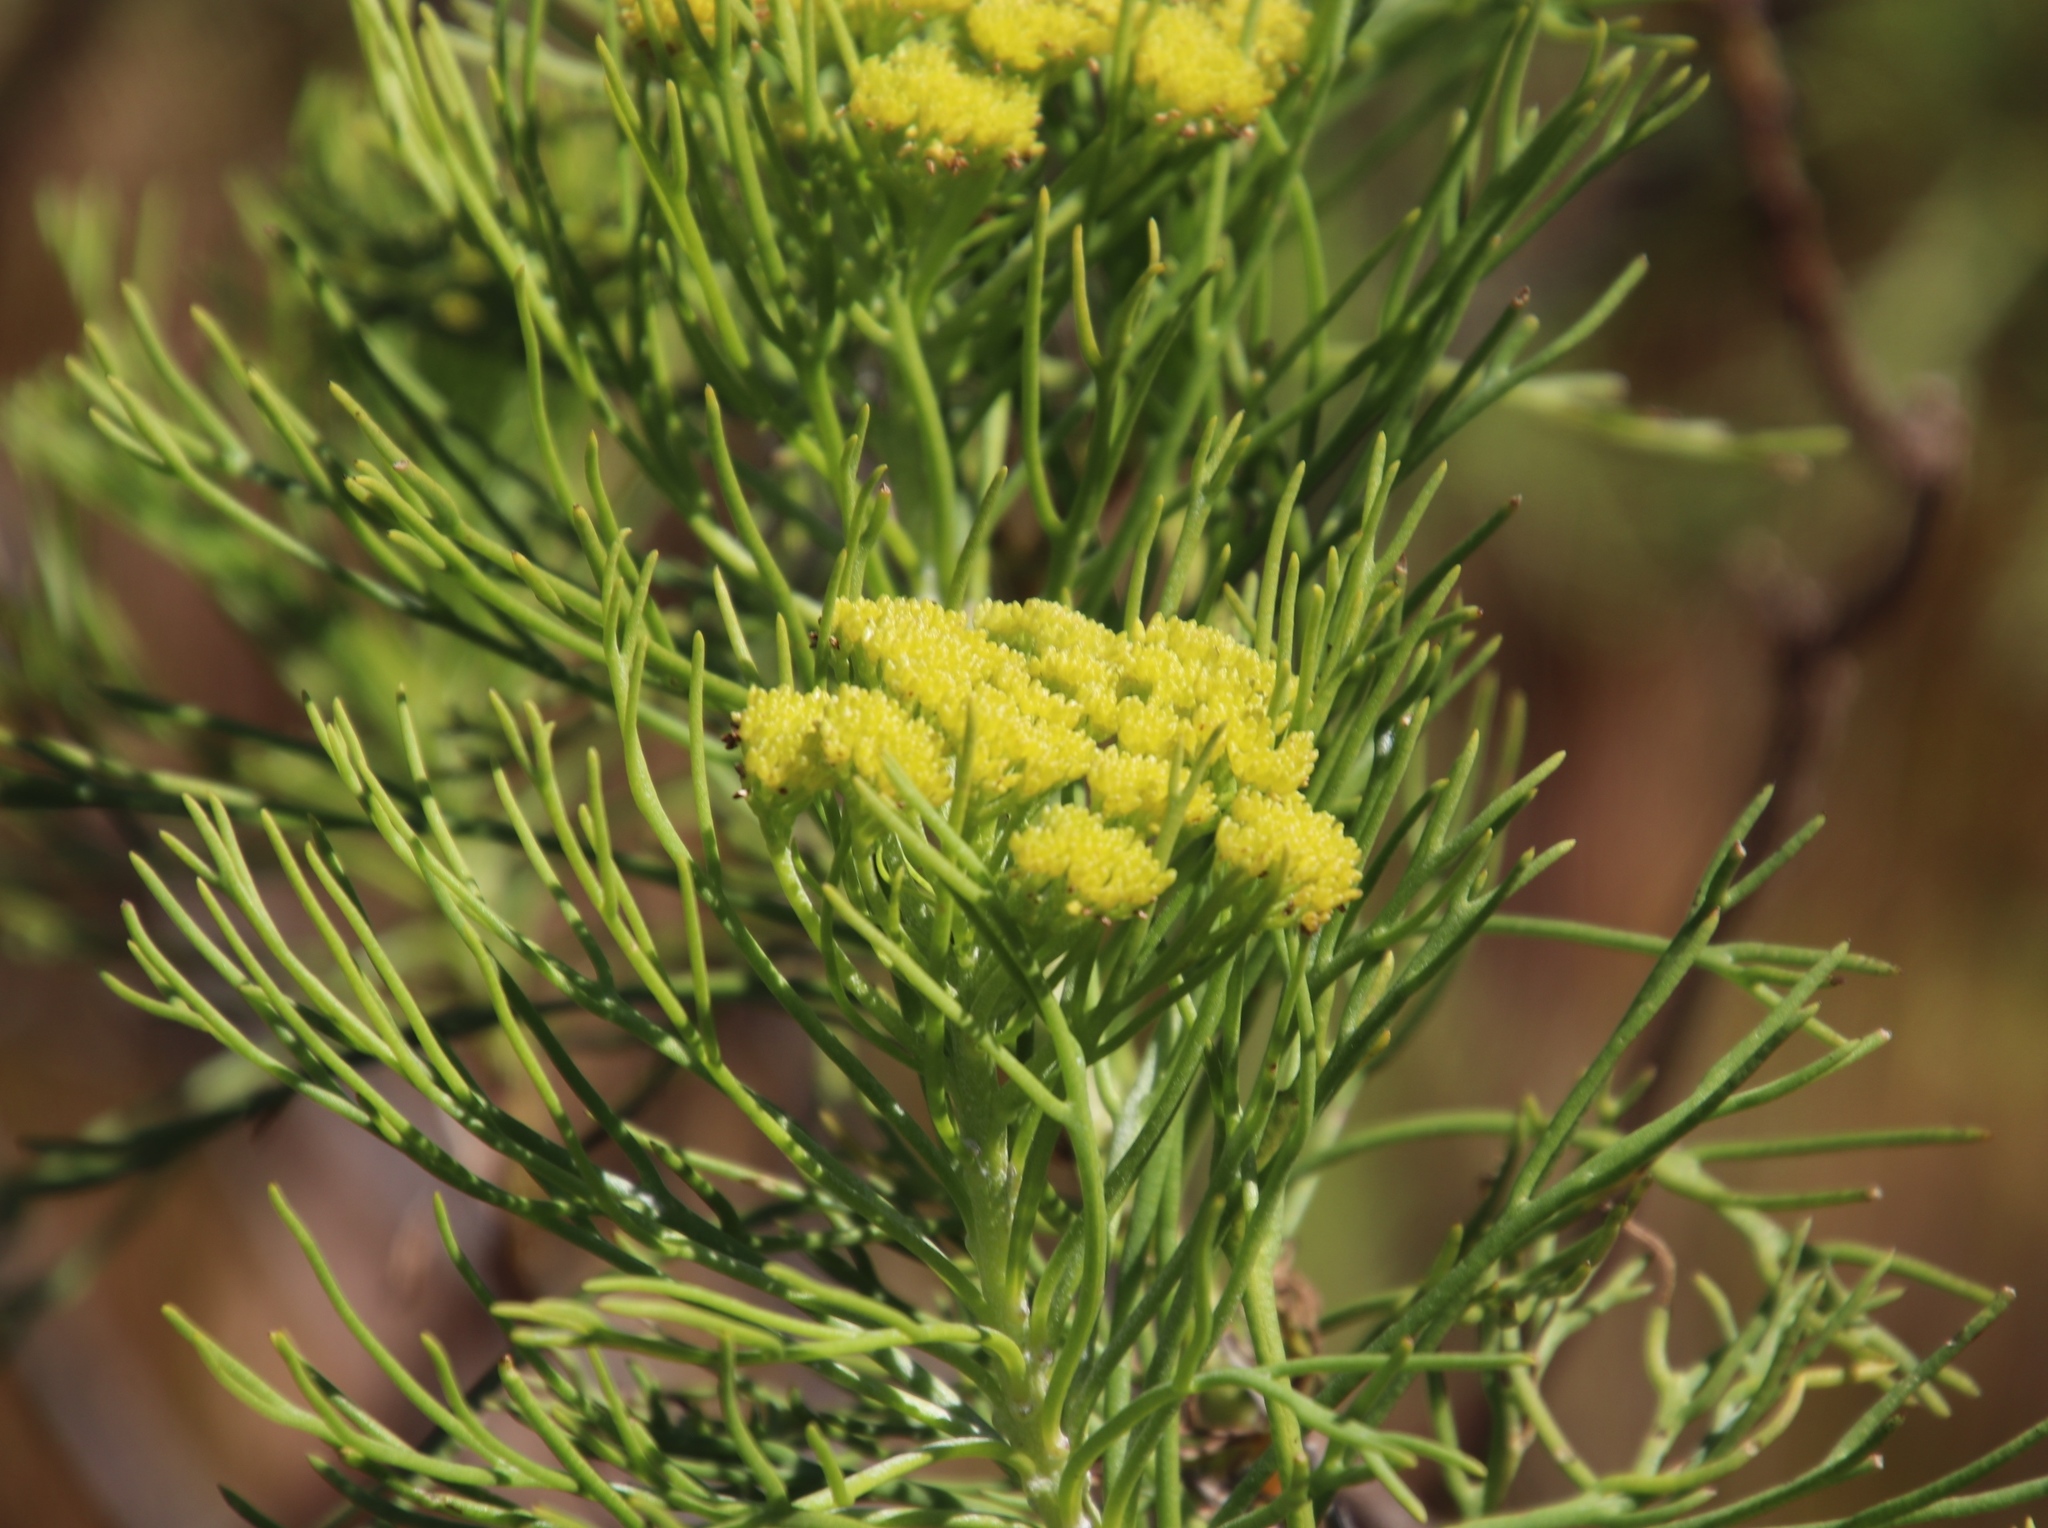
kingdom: Plantae
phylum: Tracheophyta
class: Magnoliopsida
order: Asterales
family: Asteraceae
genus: Athanasia
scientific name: Athanasia crithmifolia
